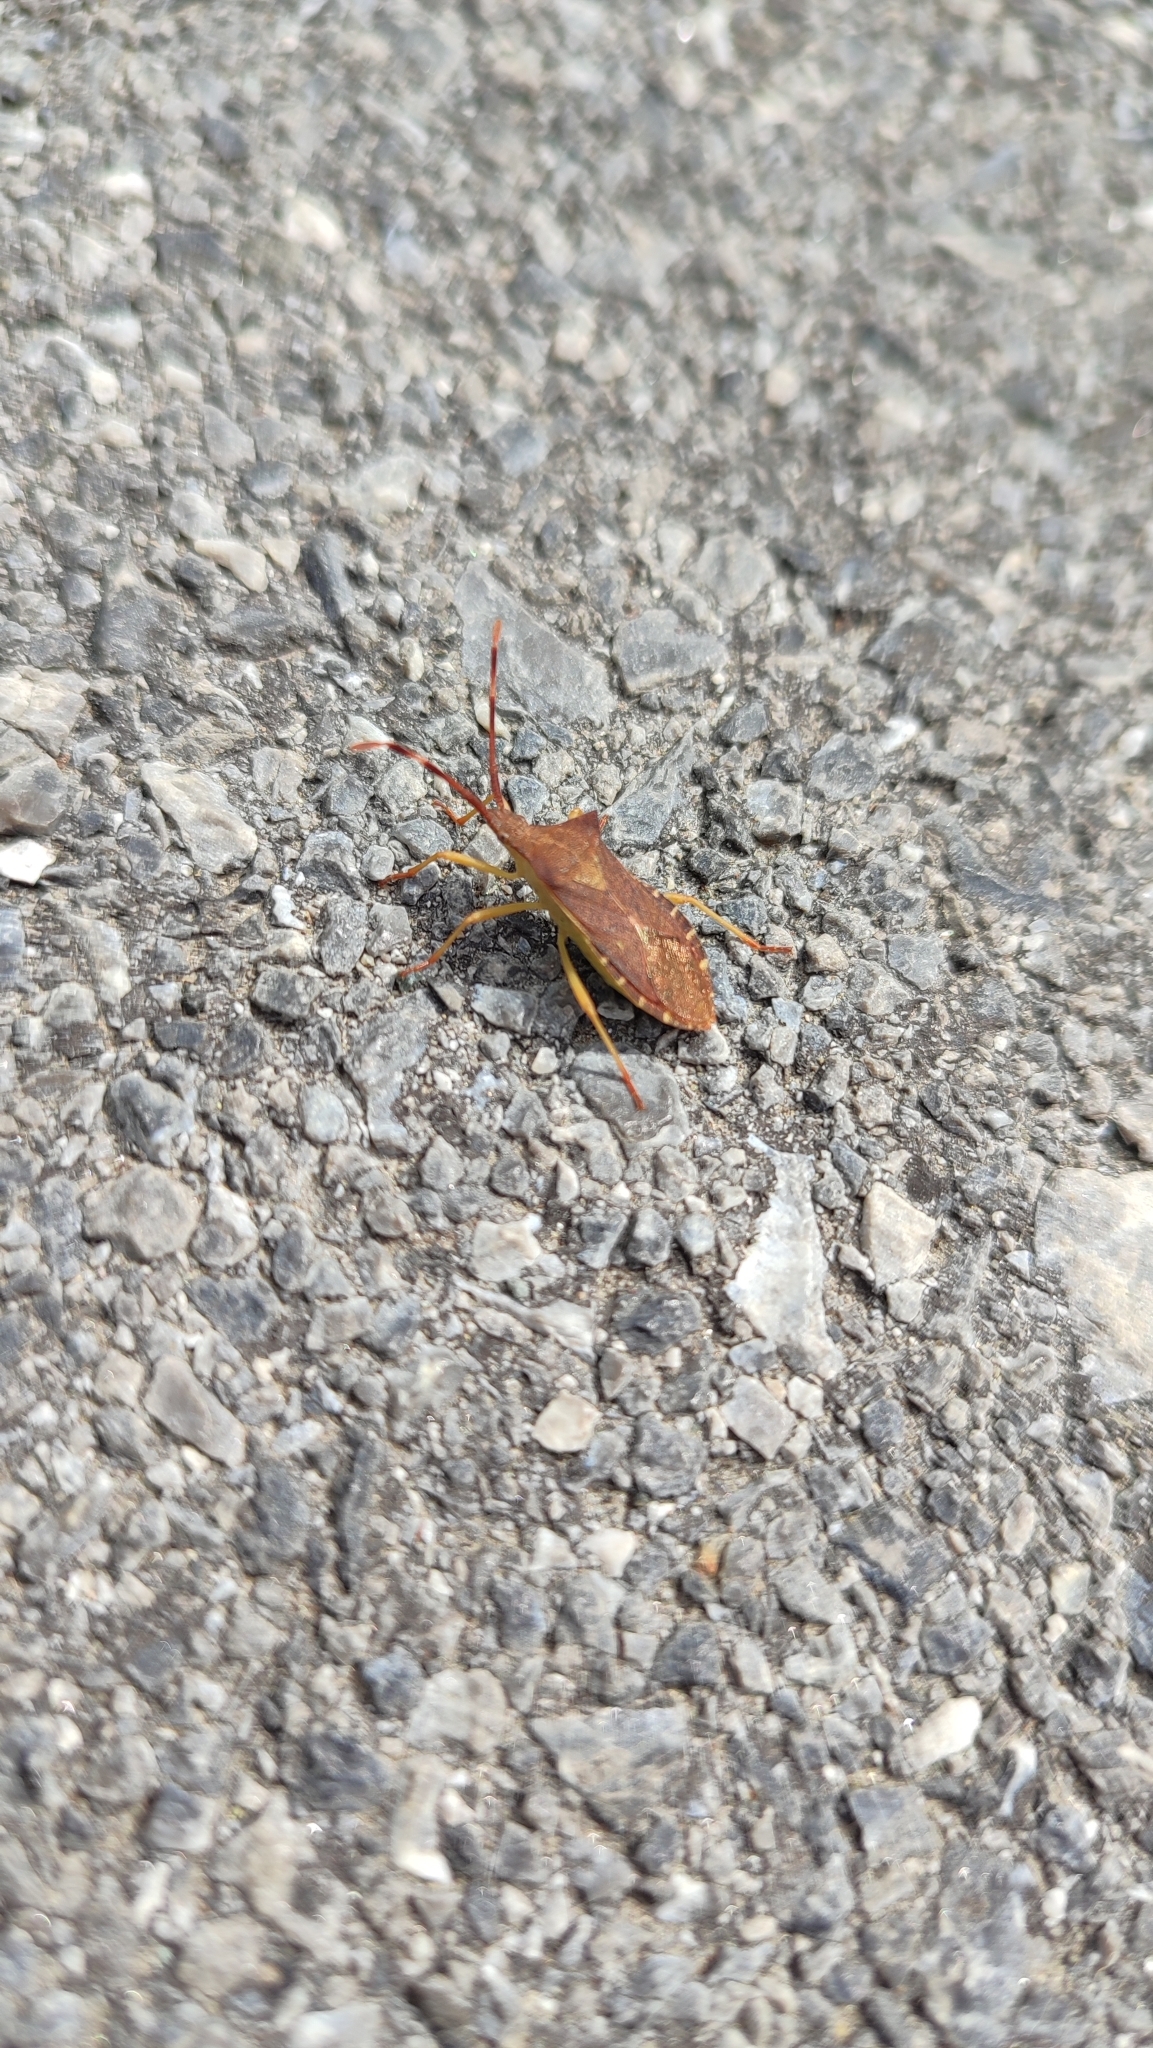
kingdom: Animalia
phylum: Arthropoda
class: Insecta
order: Hemiptera
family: Coreidae
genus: Gonocerus
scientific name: Gonocerus acuteangulatus
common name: Box bug
